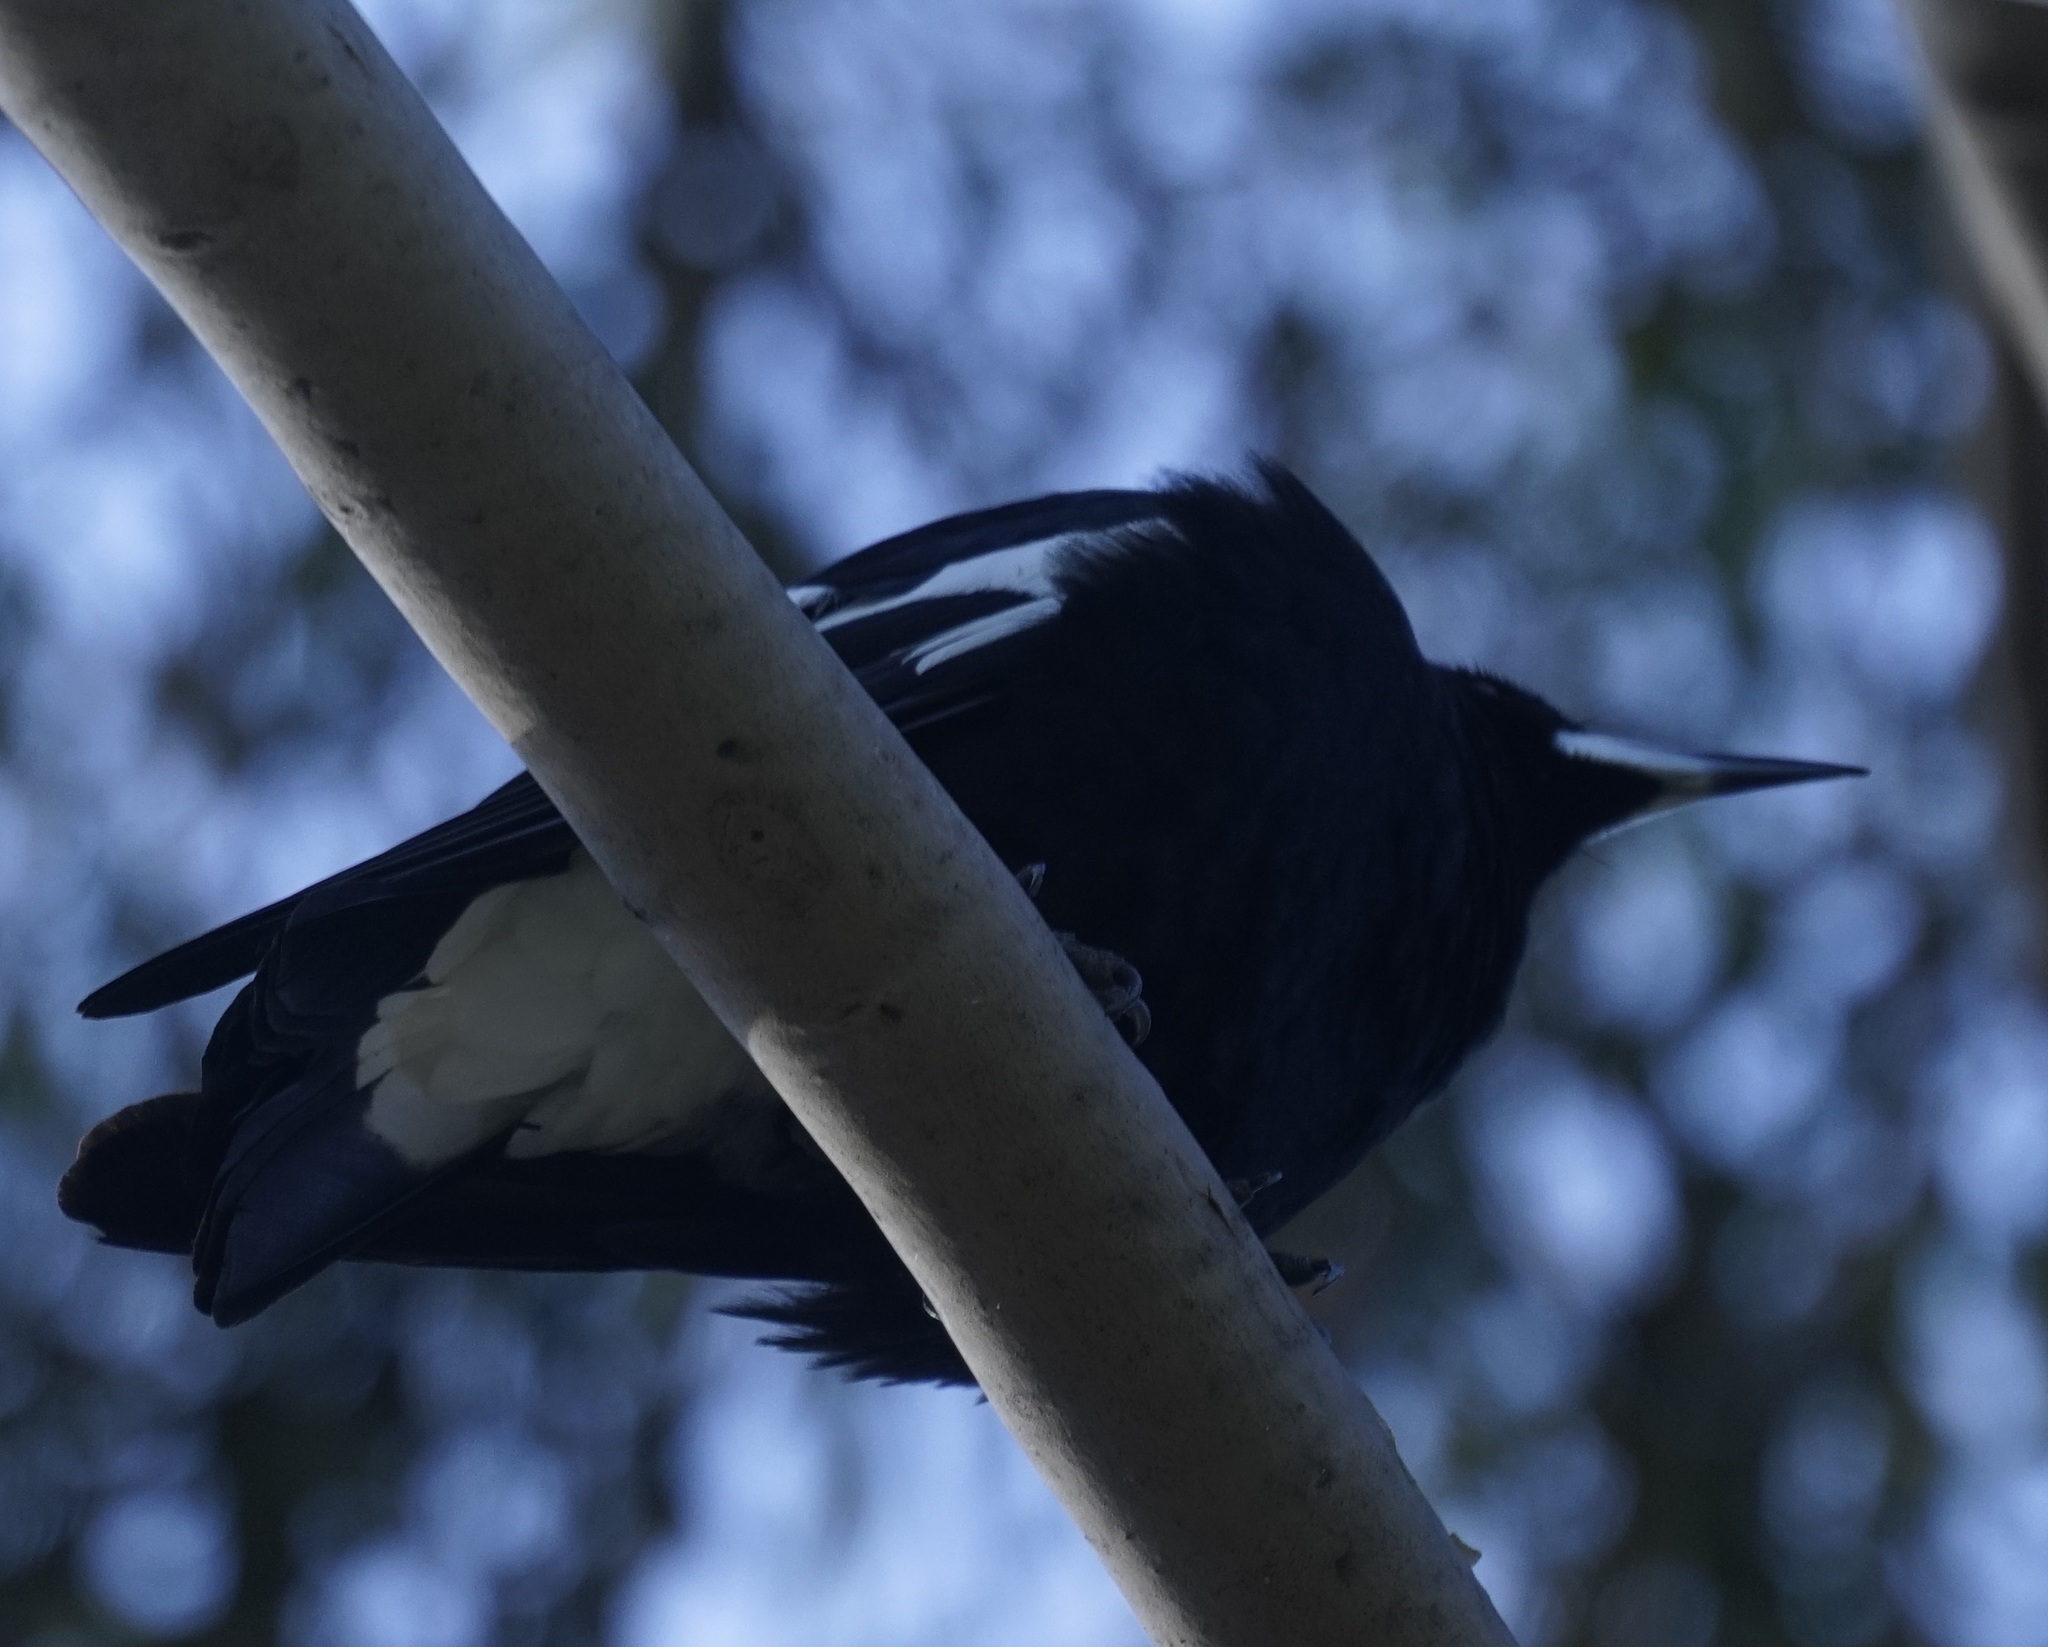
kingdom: Animalia
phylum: Chordata
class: Aves
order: Passeriformes
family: Cracticidae
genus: Gymnorhina
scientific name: Gymnorhina tibicen
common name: Australian magpie
